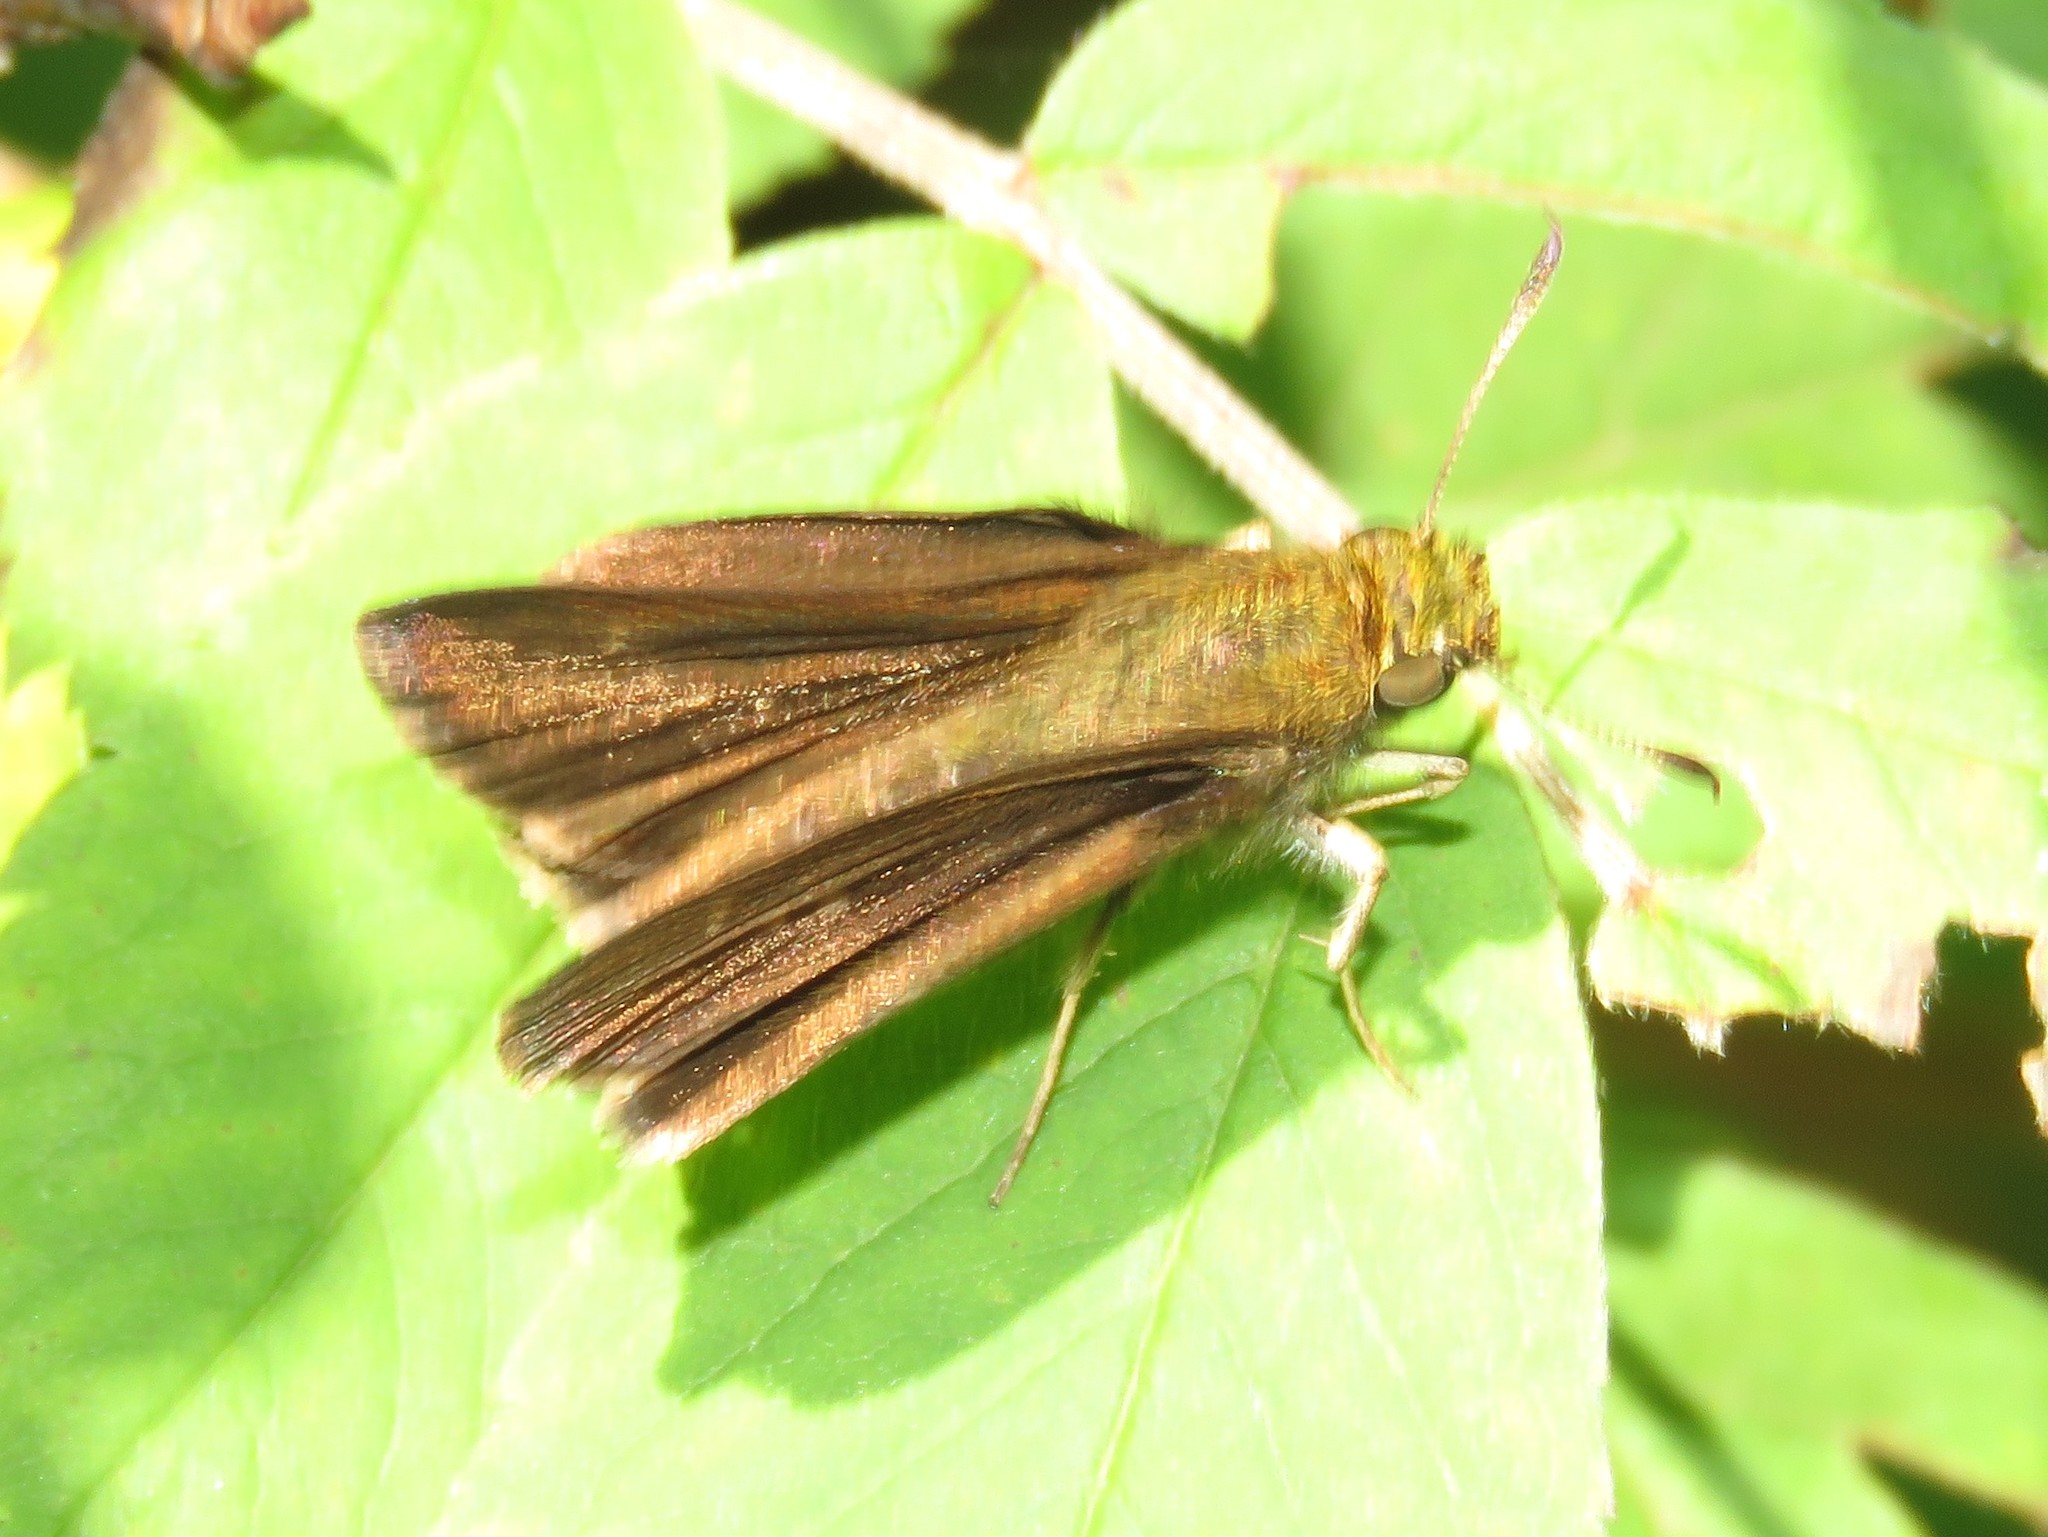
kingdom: Animalia
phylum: Arthropoda
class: Insecta
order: Lepidoptera
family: Hesperiidae
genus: Euphyes
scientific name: Euphyes vestris
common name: Dun skipper
